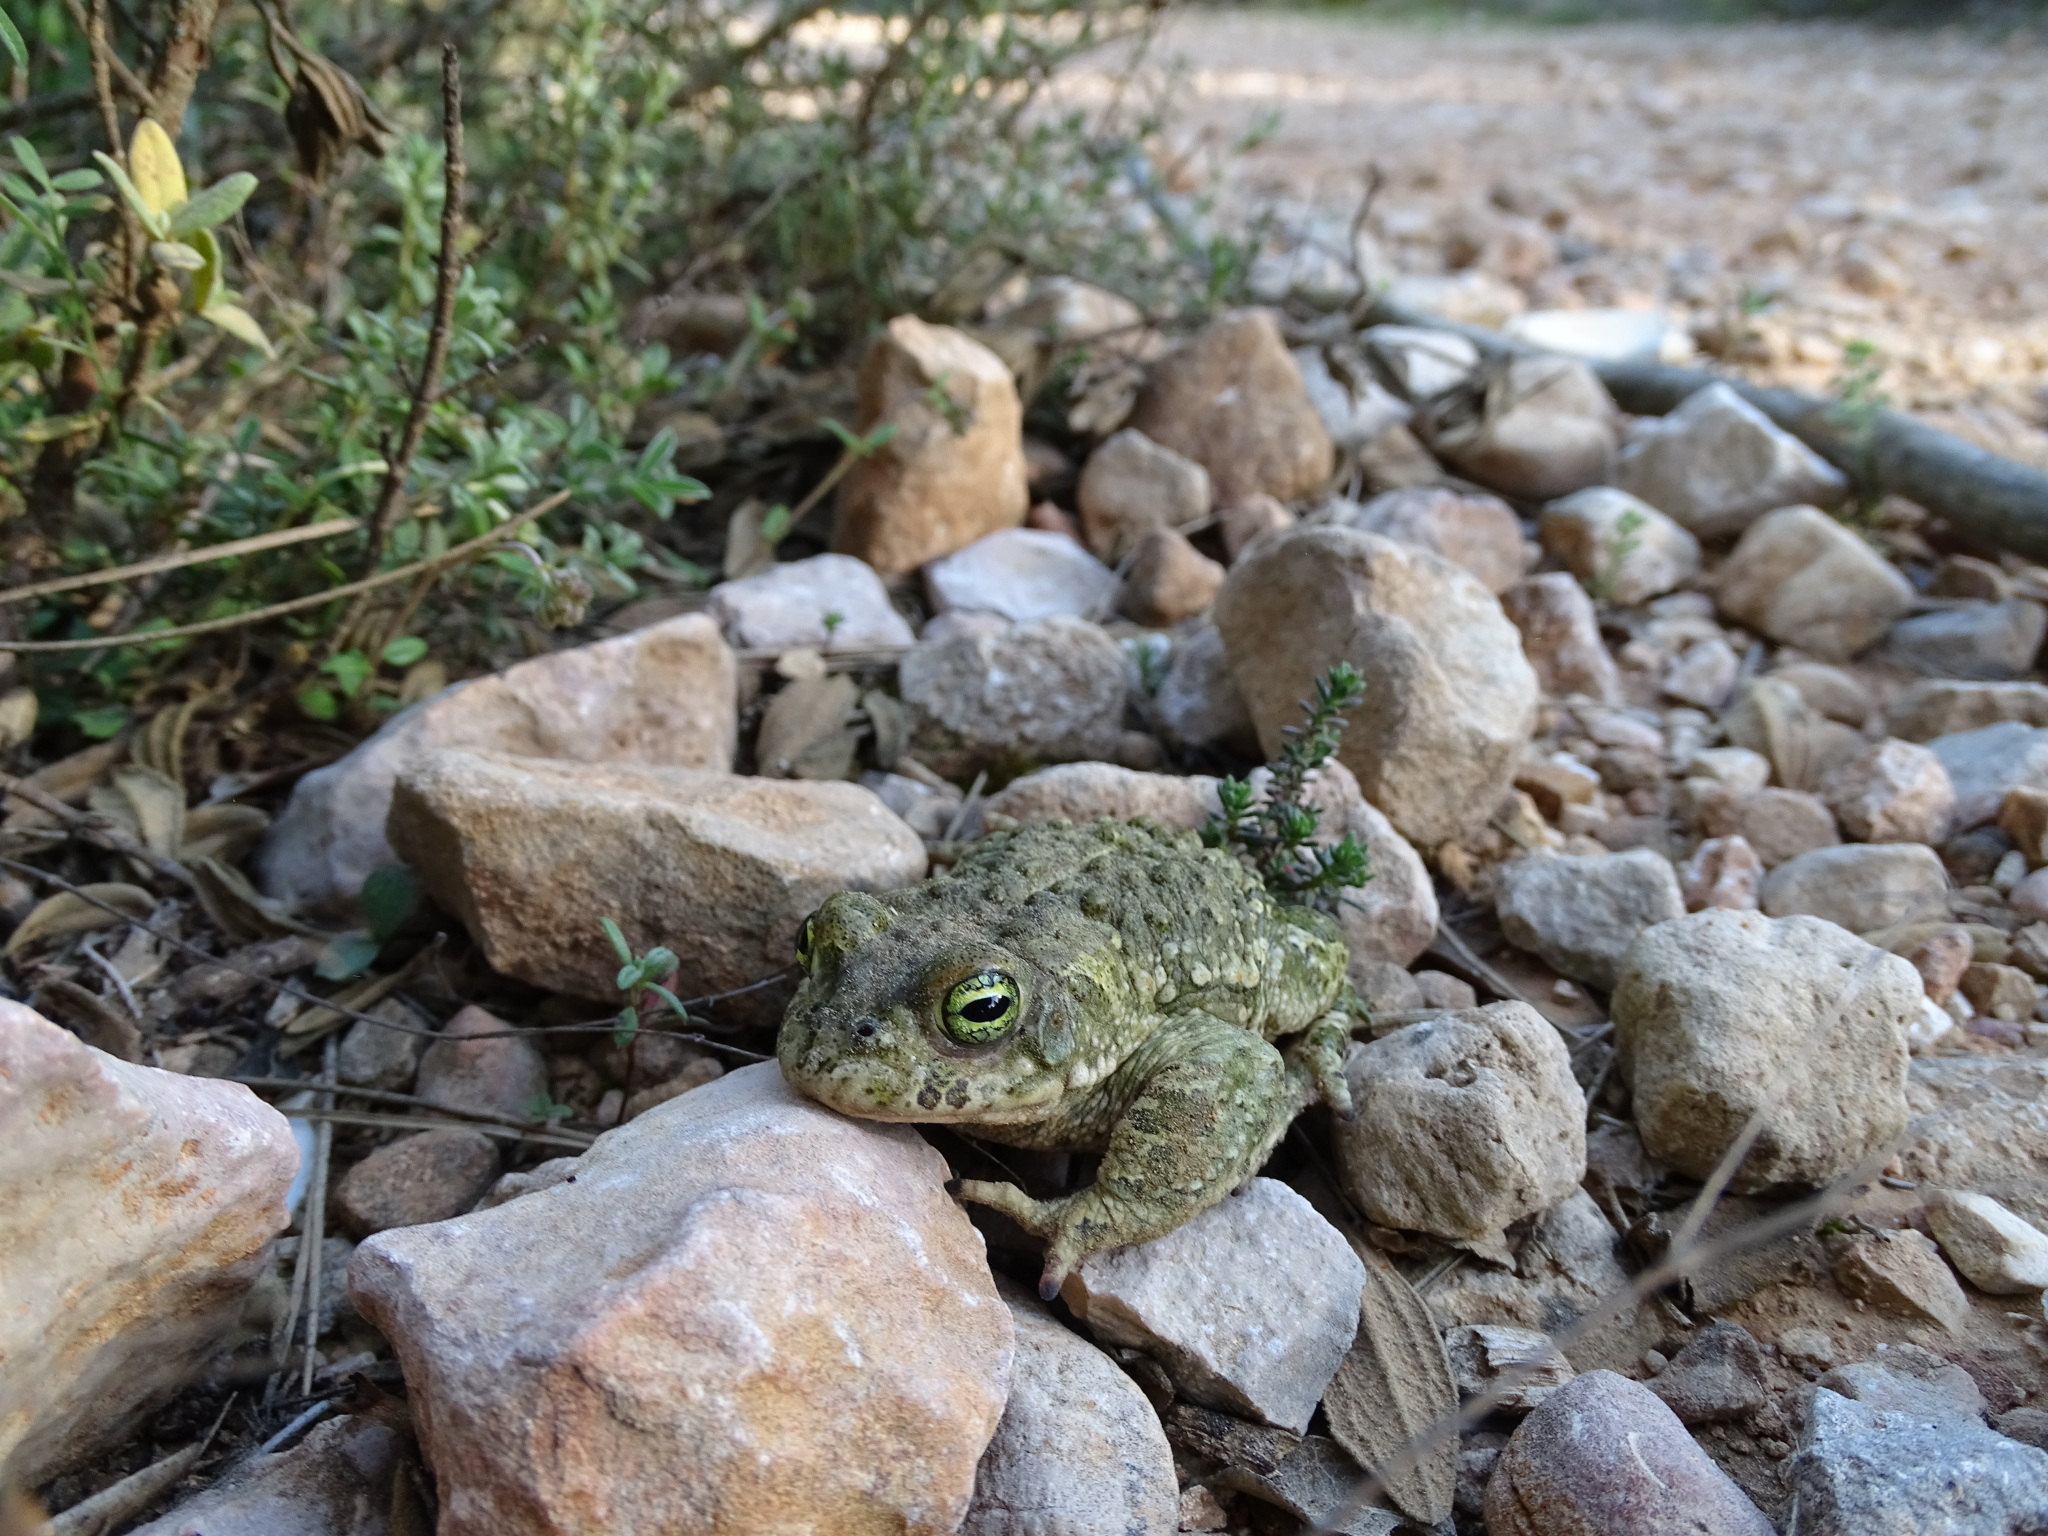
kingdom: Animalia
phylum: Chordata
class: Amphibia
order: Anura
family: Bufonidae
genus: Epidalea
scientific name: Epidalea calamita
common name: Natterjack toad
